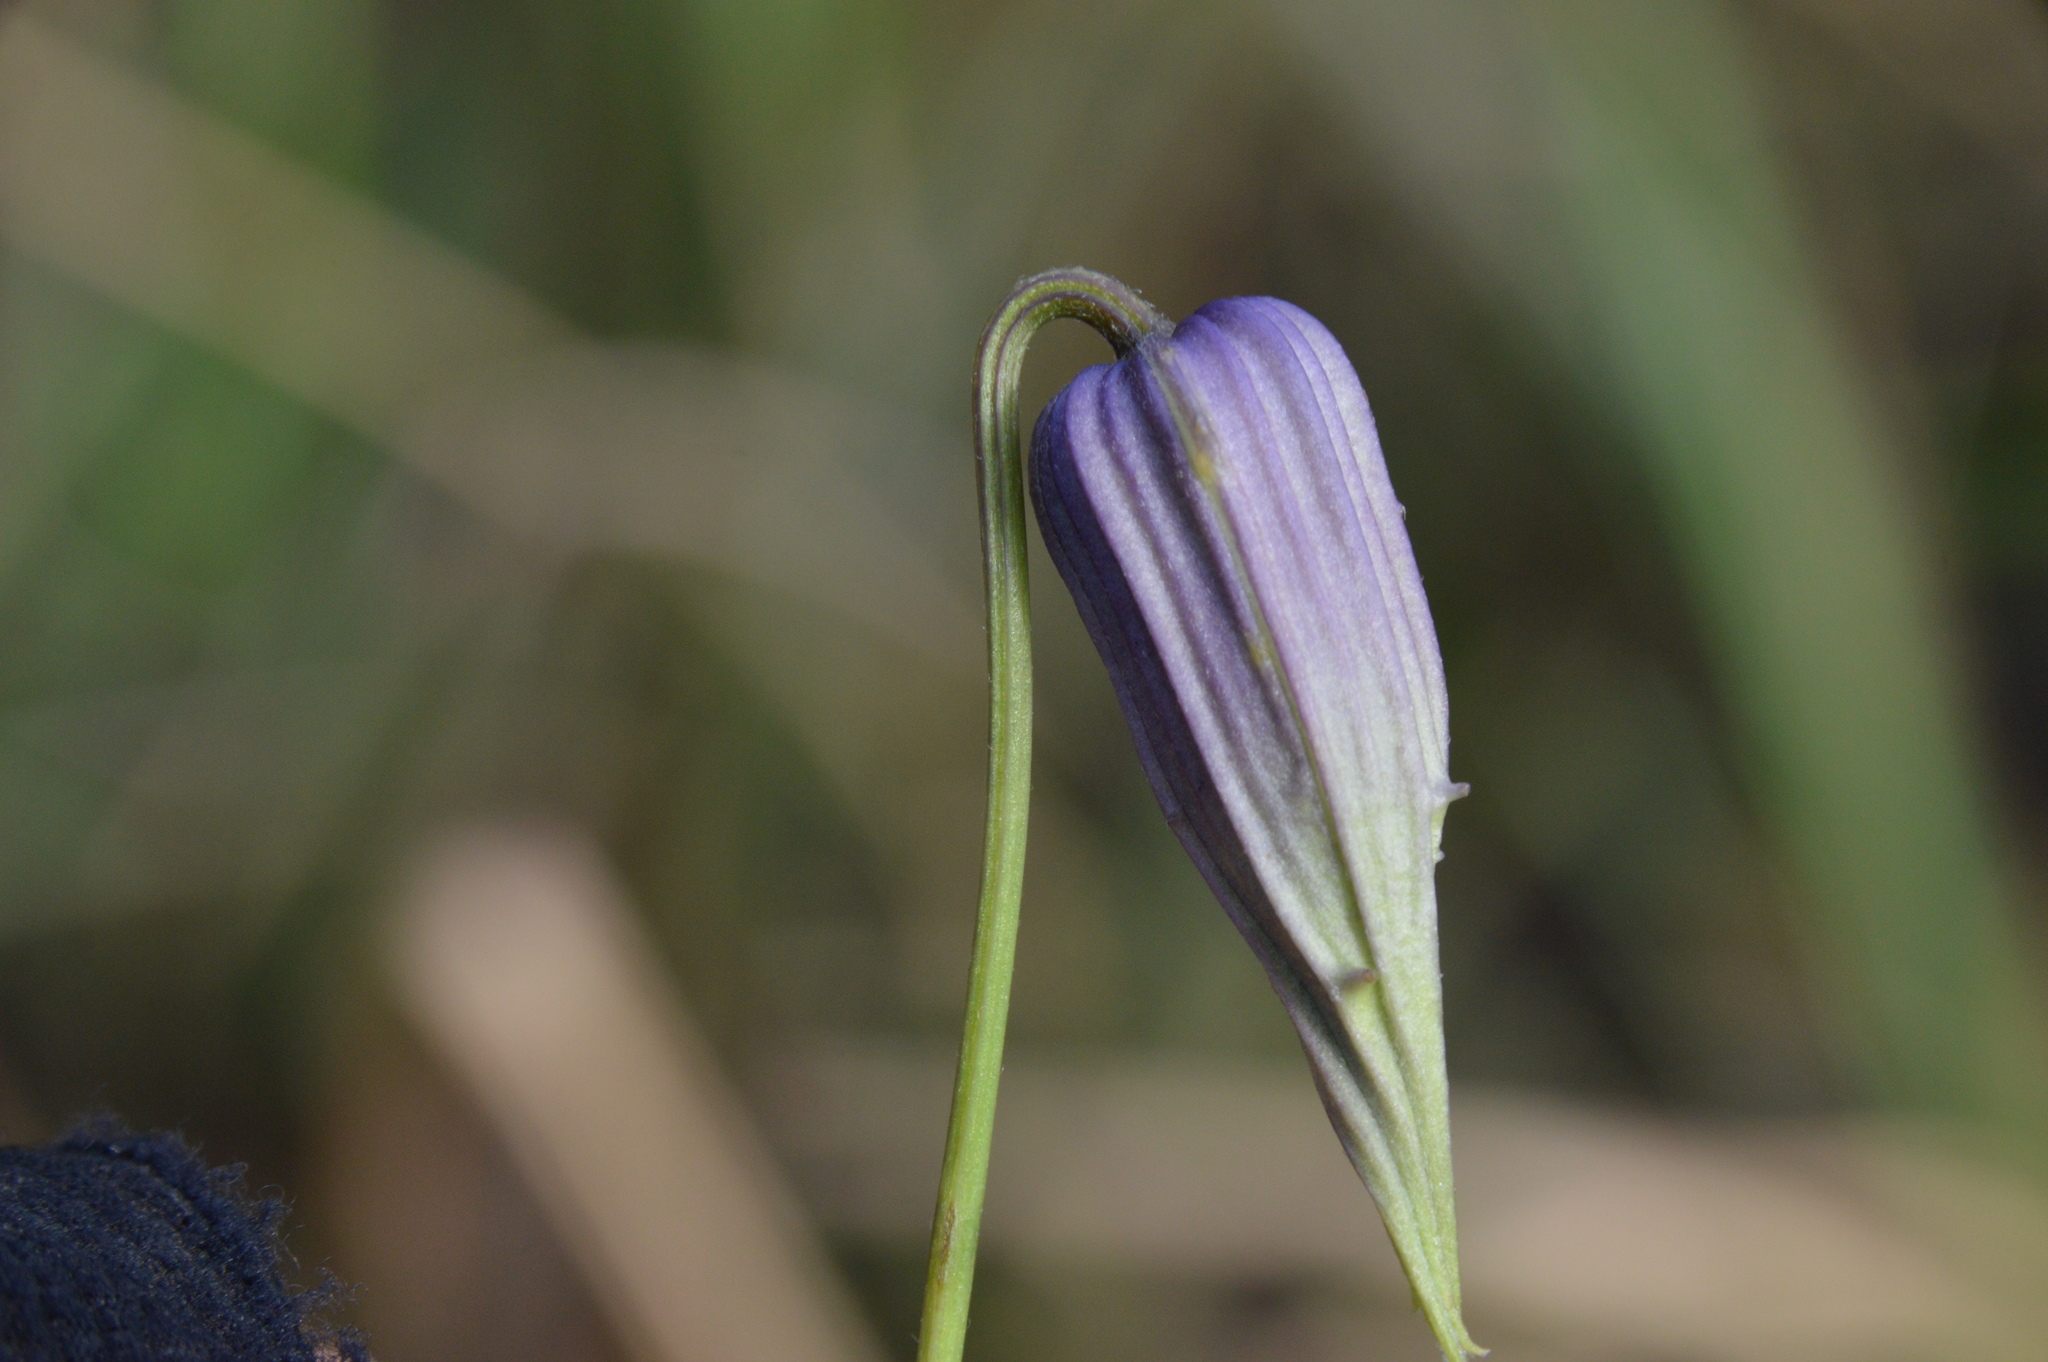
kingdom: Plantae
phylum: Tracheophyta
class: Magnoliopsida
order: Ranunculales
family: Ranunculaceae
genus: Clematis
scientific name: Clematis crispa
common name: Curly clematis
